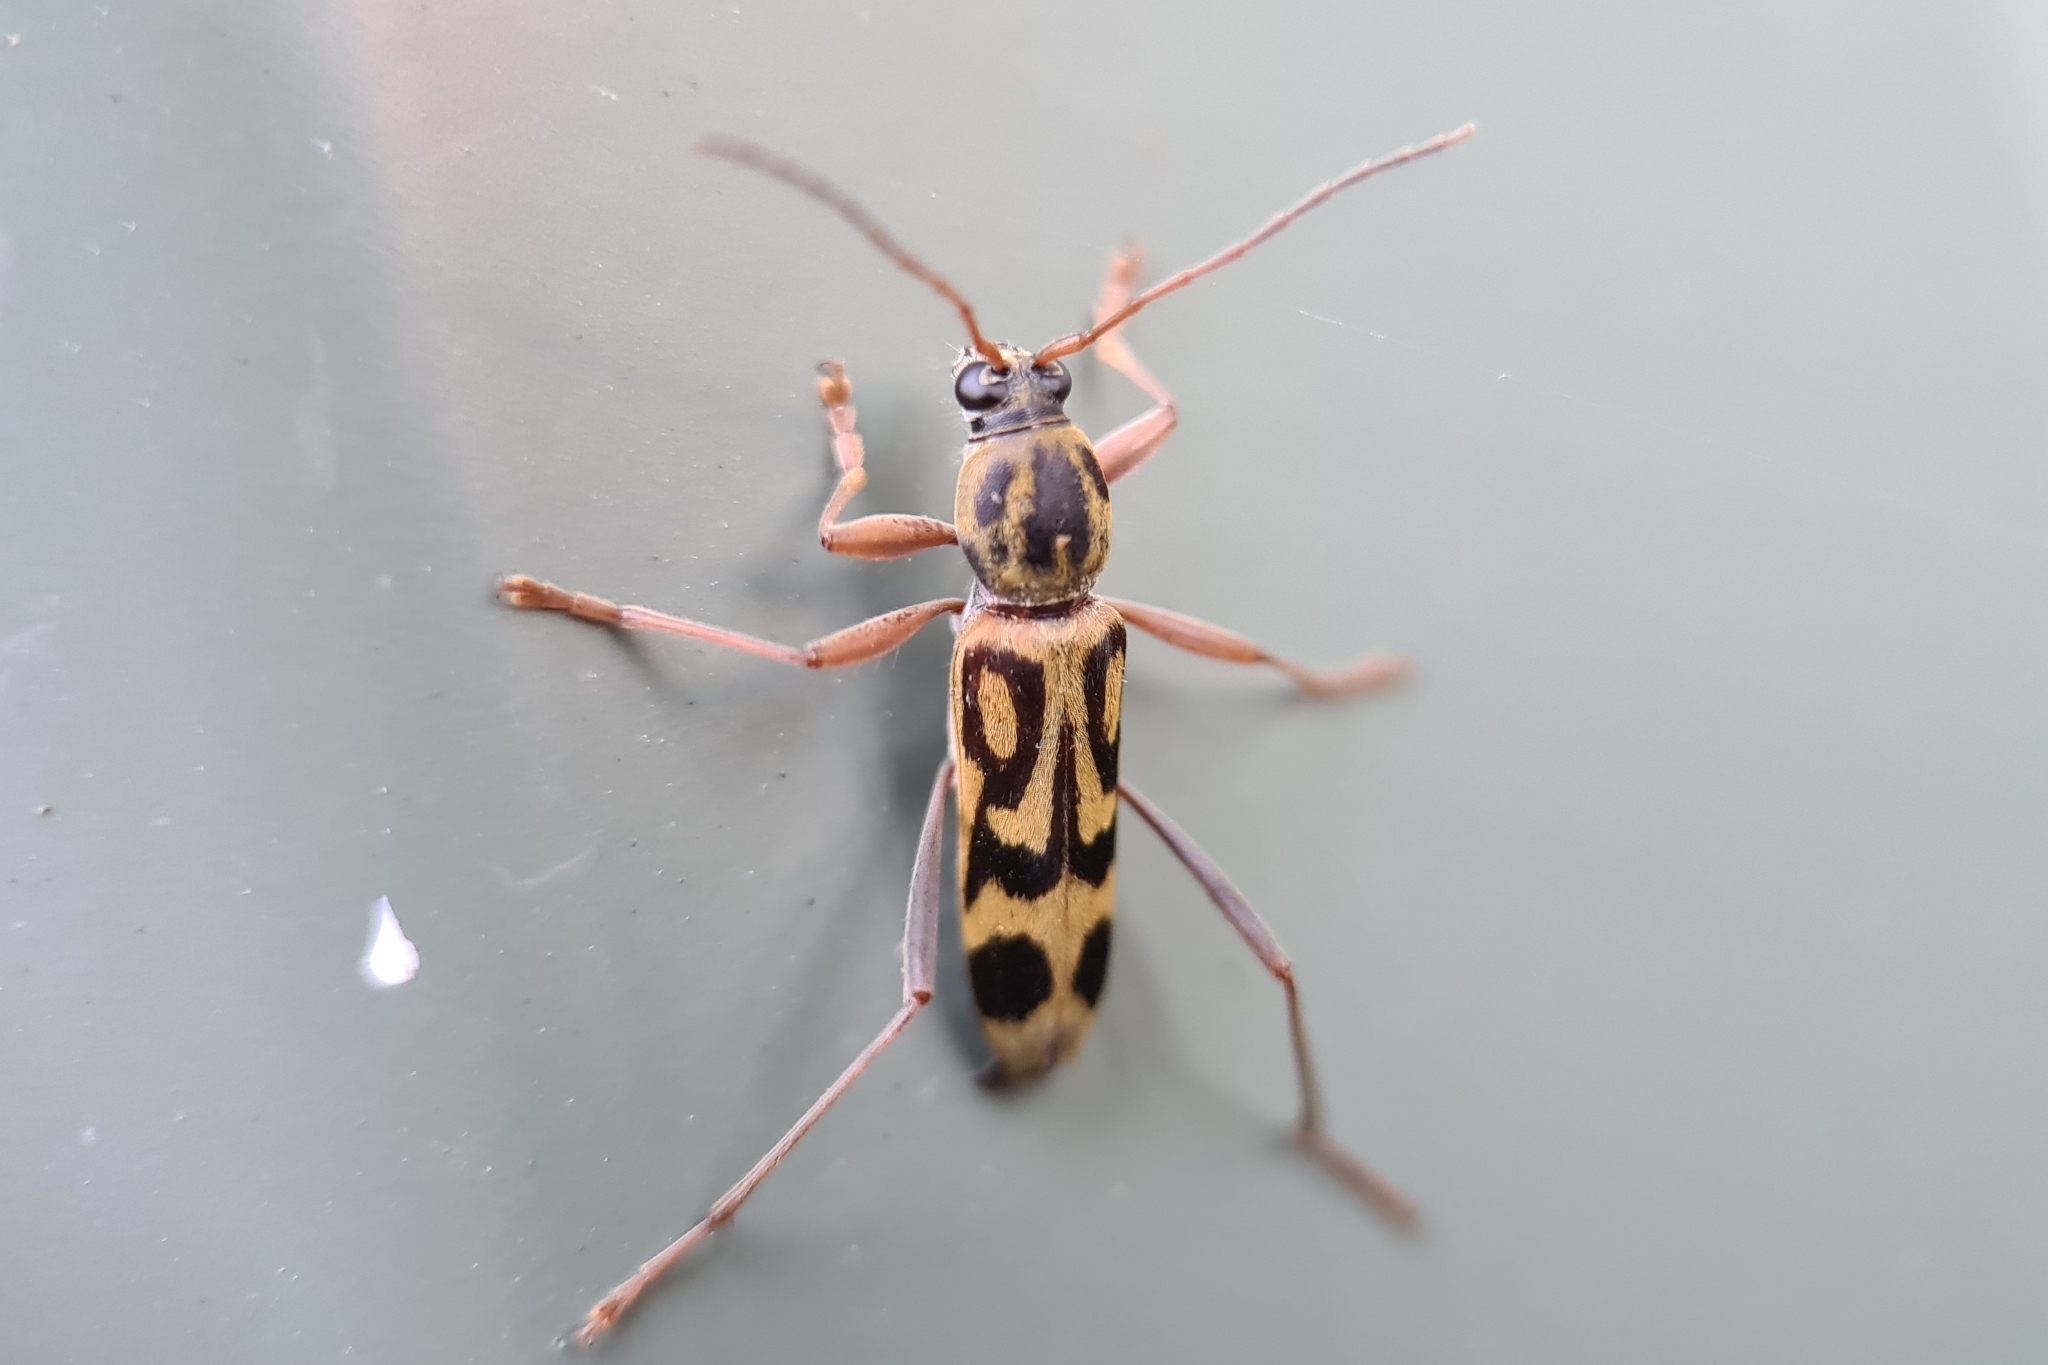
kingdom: Animalia
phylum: Arthropoda
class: Insecta
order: Coleoptera
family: Cerambycidae
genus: Chlorophorus
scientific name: Chlorophorus annularis
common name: Bamboo longhorn beetle
